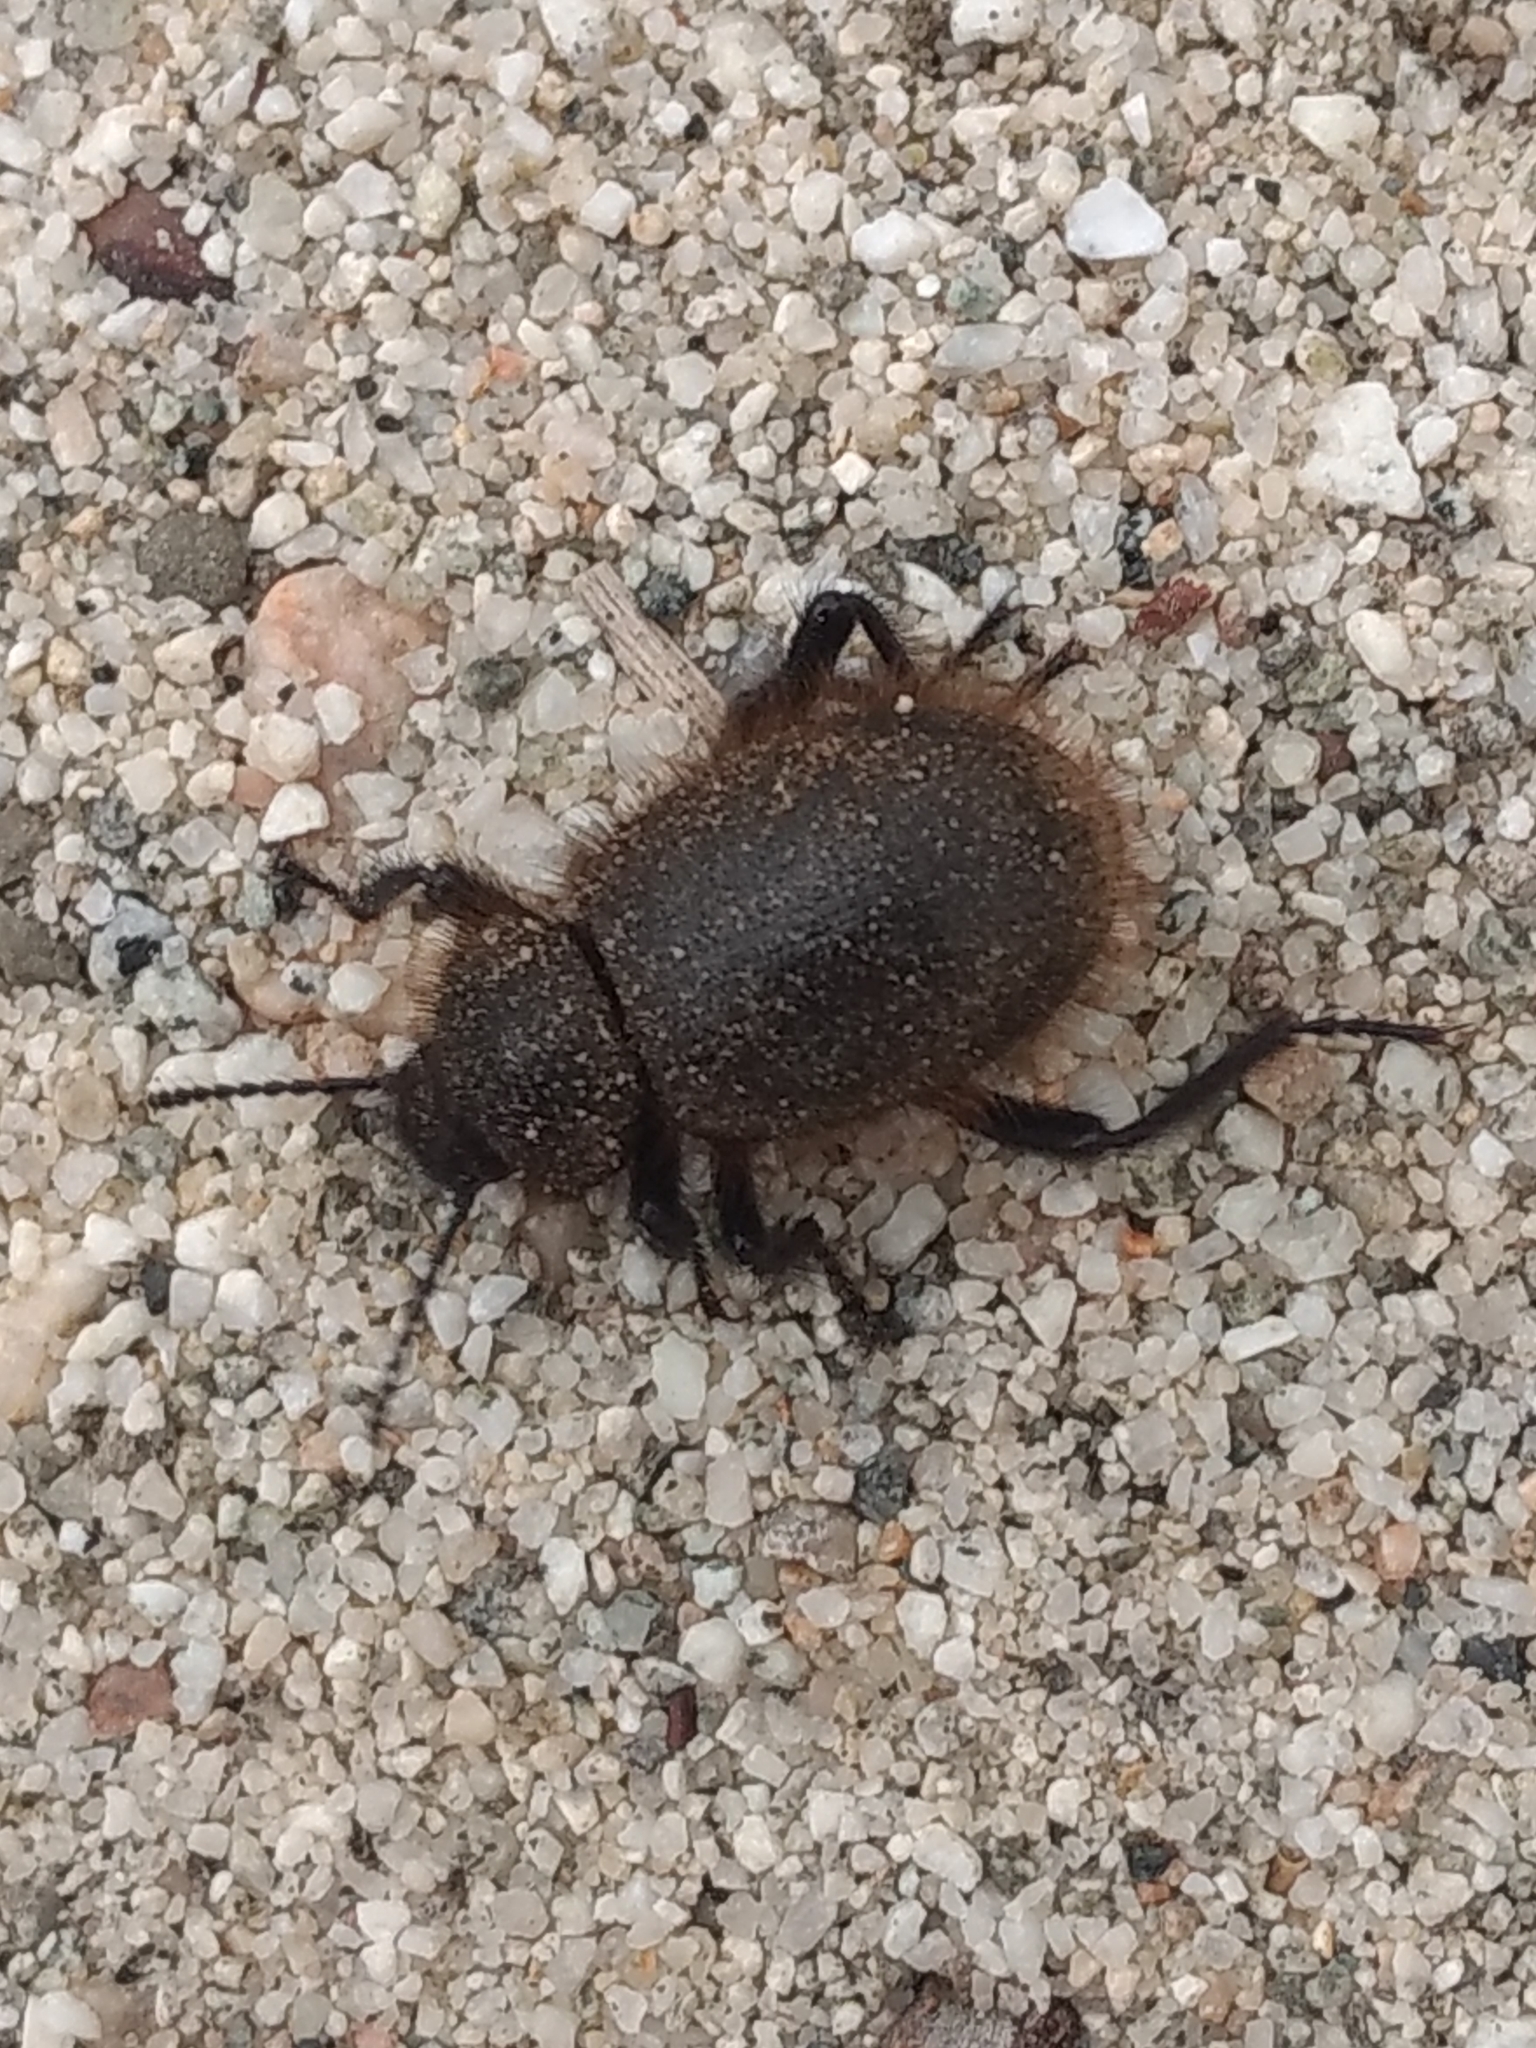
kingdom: Animalia
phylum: Arthropoda
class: Insecta
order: Coleoptera
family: Tenebrionidae
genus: Eleodes
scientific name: Eleodes osculans
